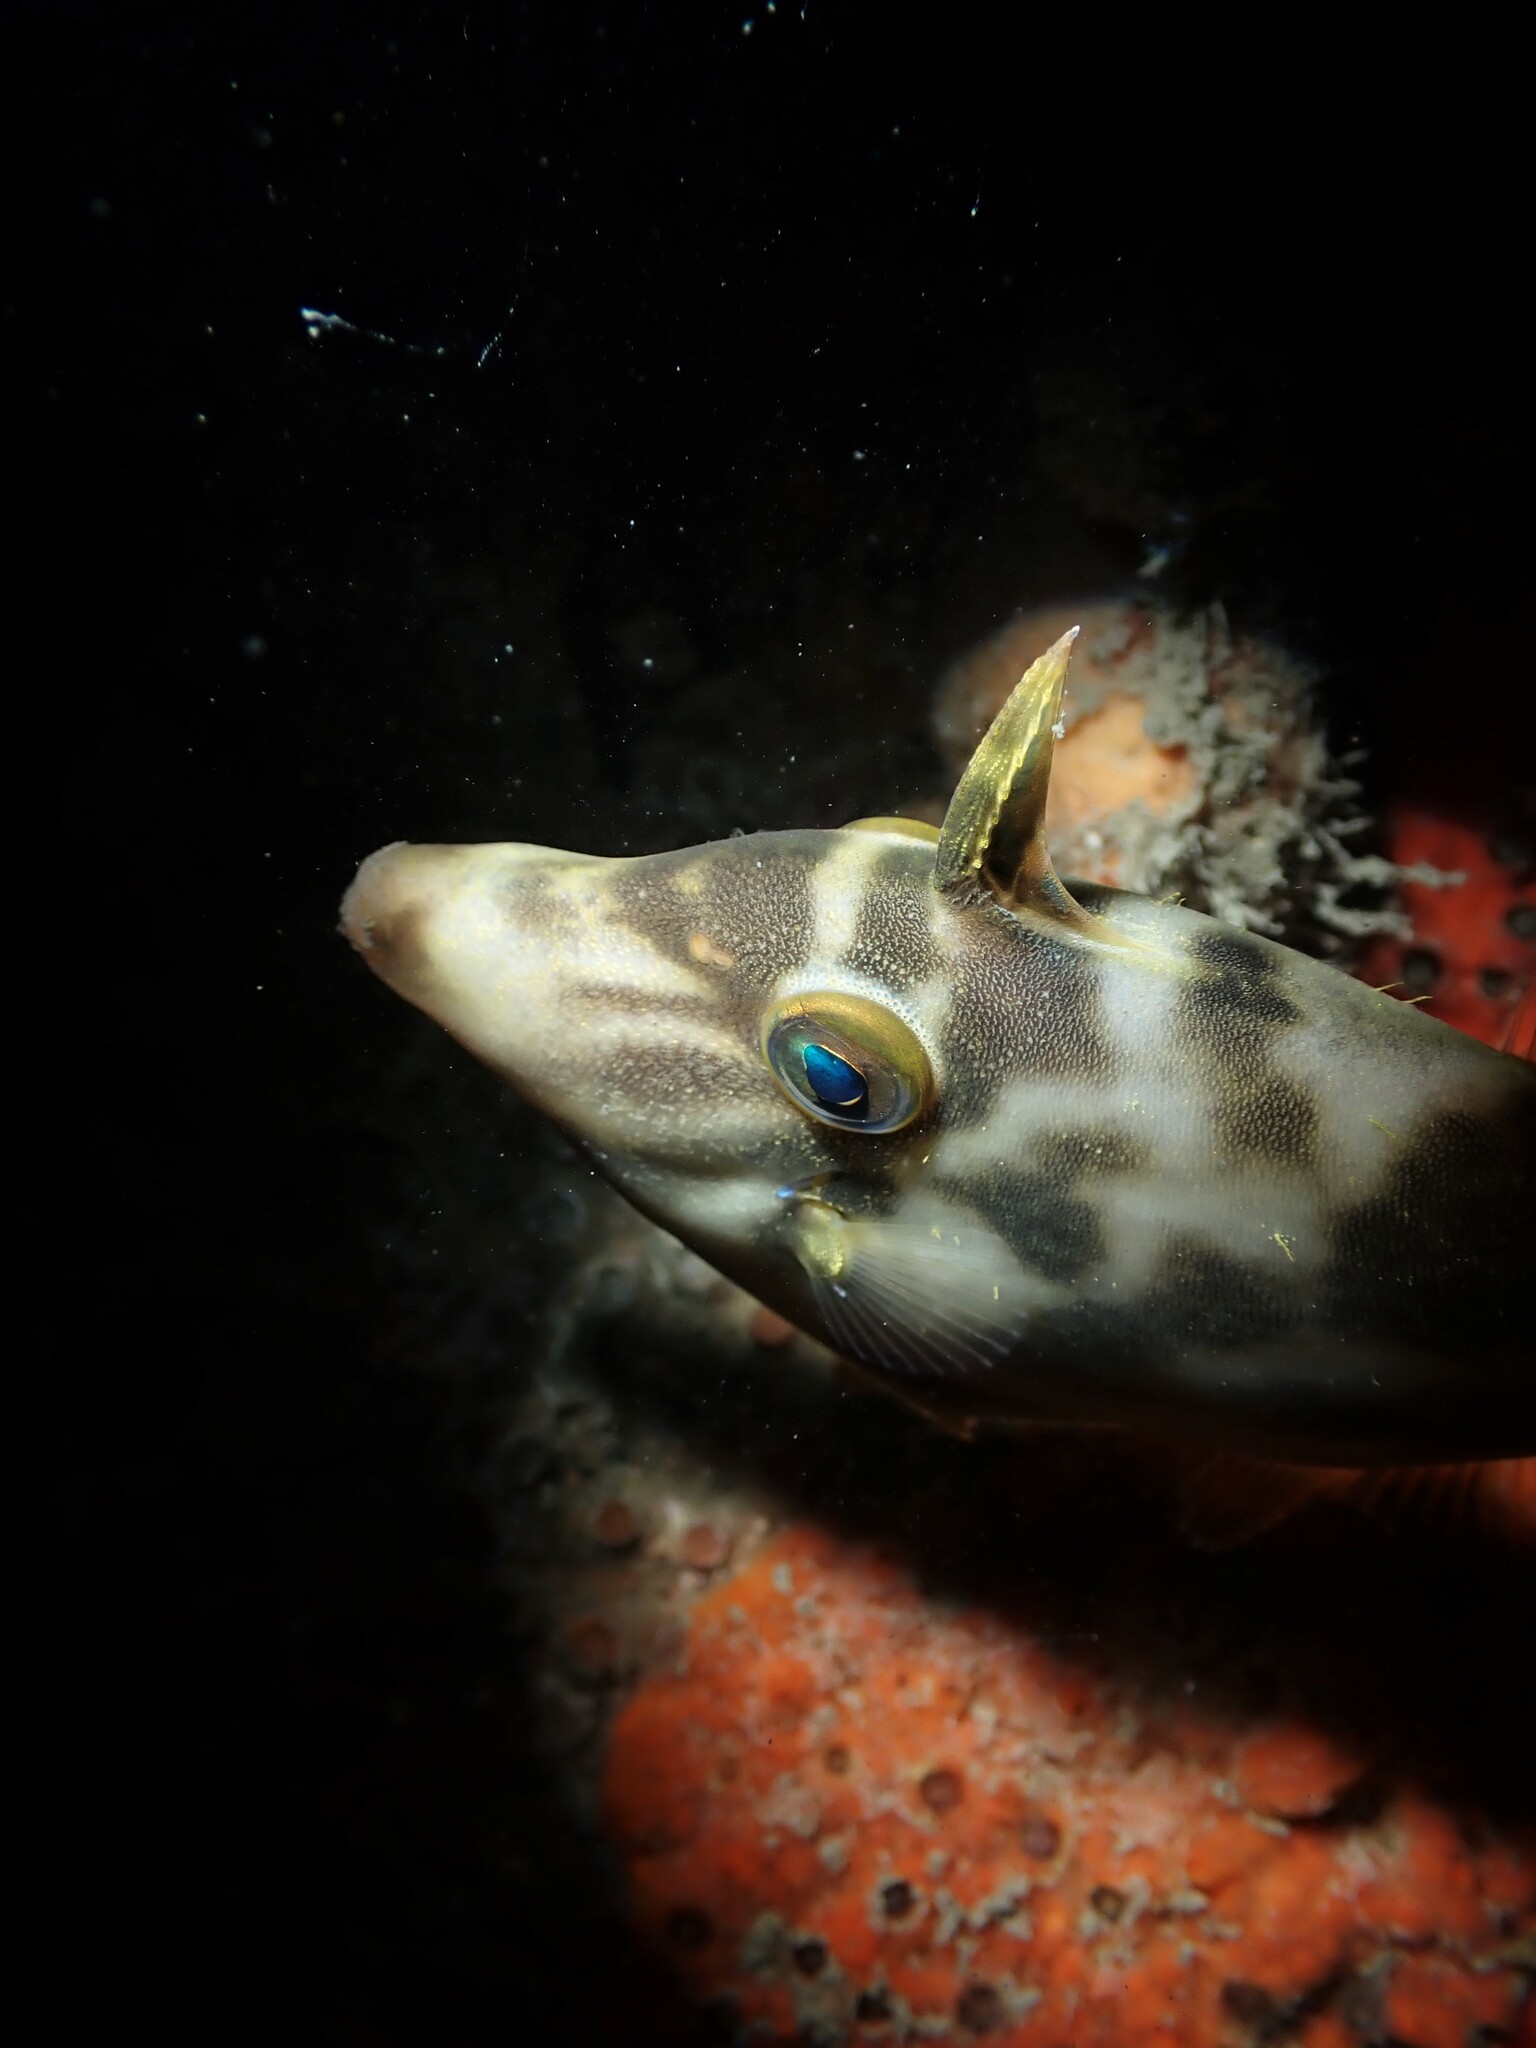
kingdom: Animalia
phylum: Chordata
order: Tetraodontiformes
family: Monacanthidae
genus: Meuschenia
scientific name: Meuschenia scaber
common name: Cosmopolitan leatherjacket
